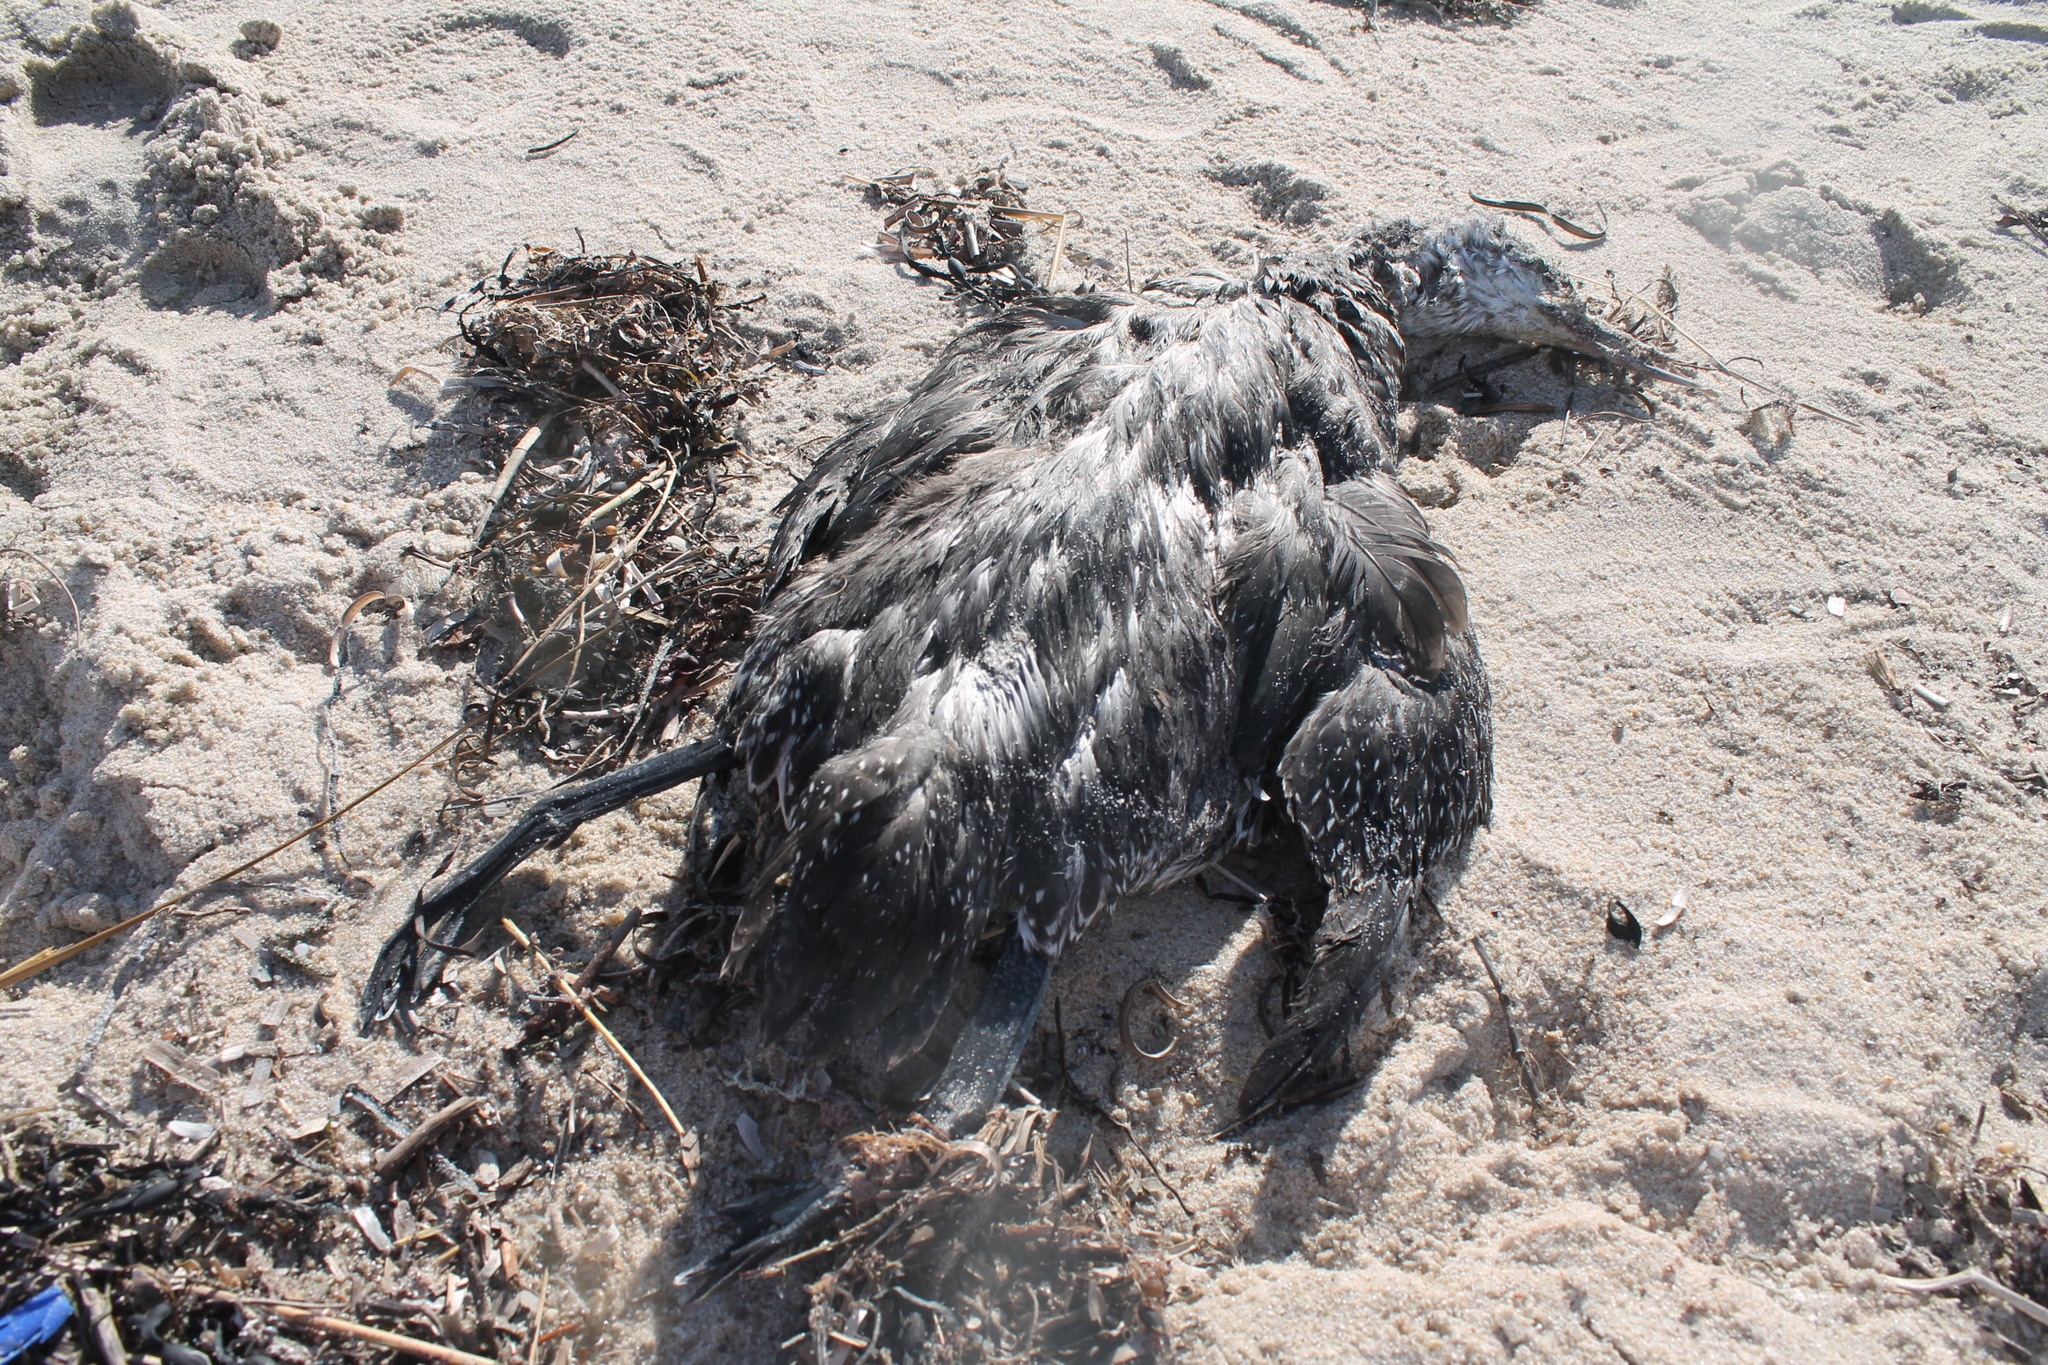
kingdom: Animalia
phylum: Chordata
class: Aves
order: Gaviiformes
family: Gaviidae
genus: Gavia
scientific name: Gavia stellata
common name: Red-throated loon
